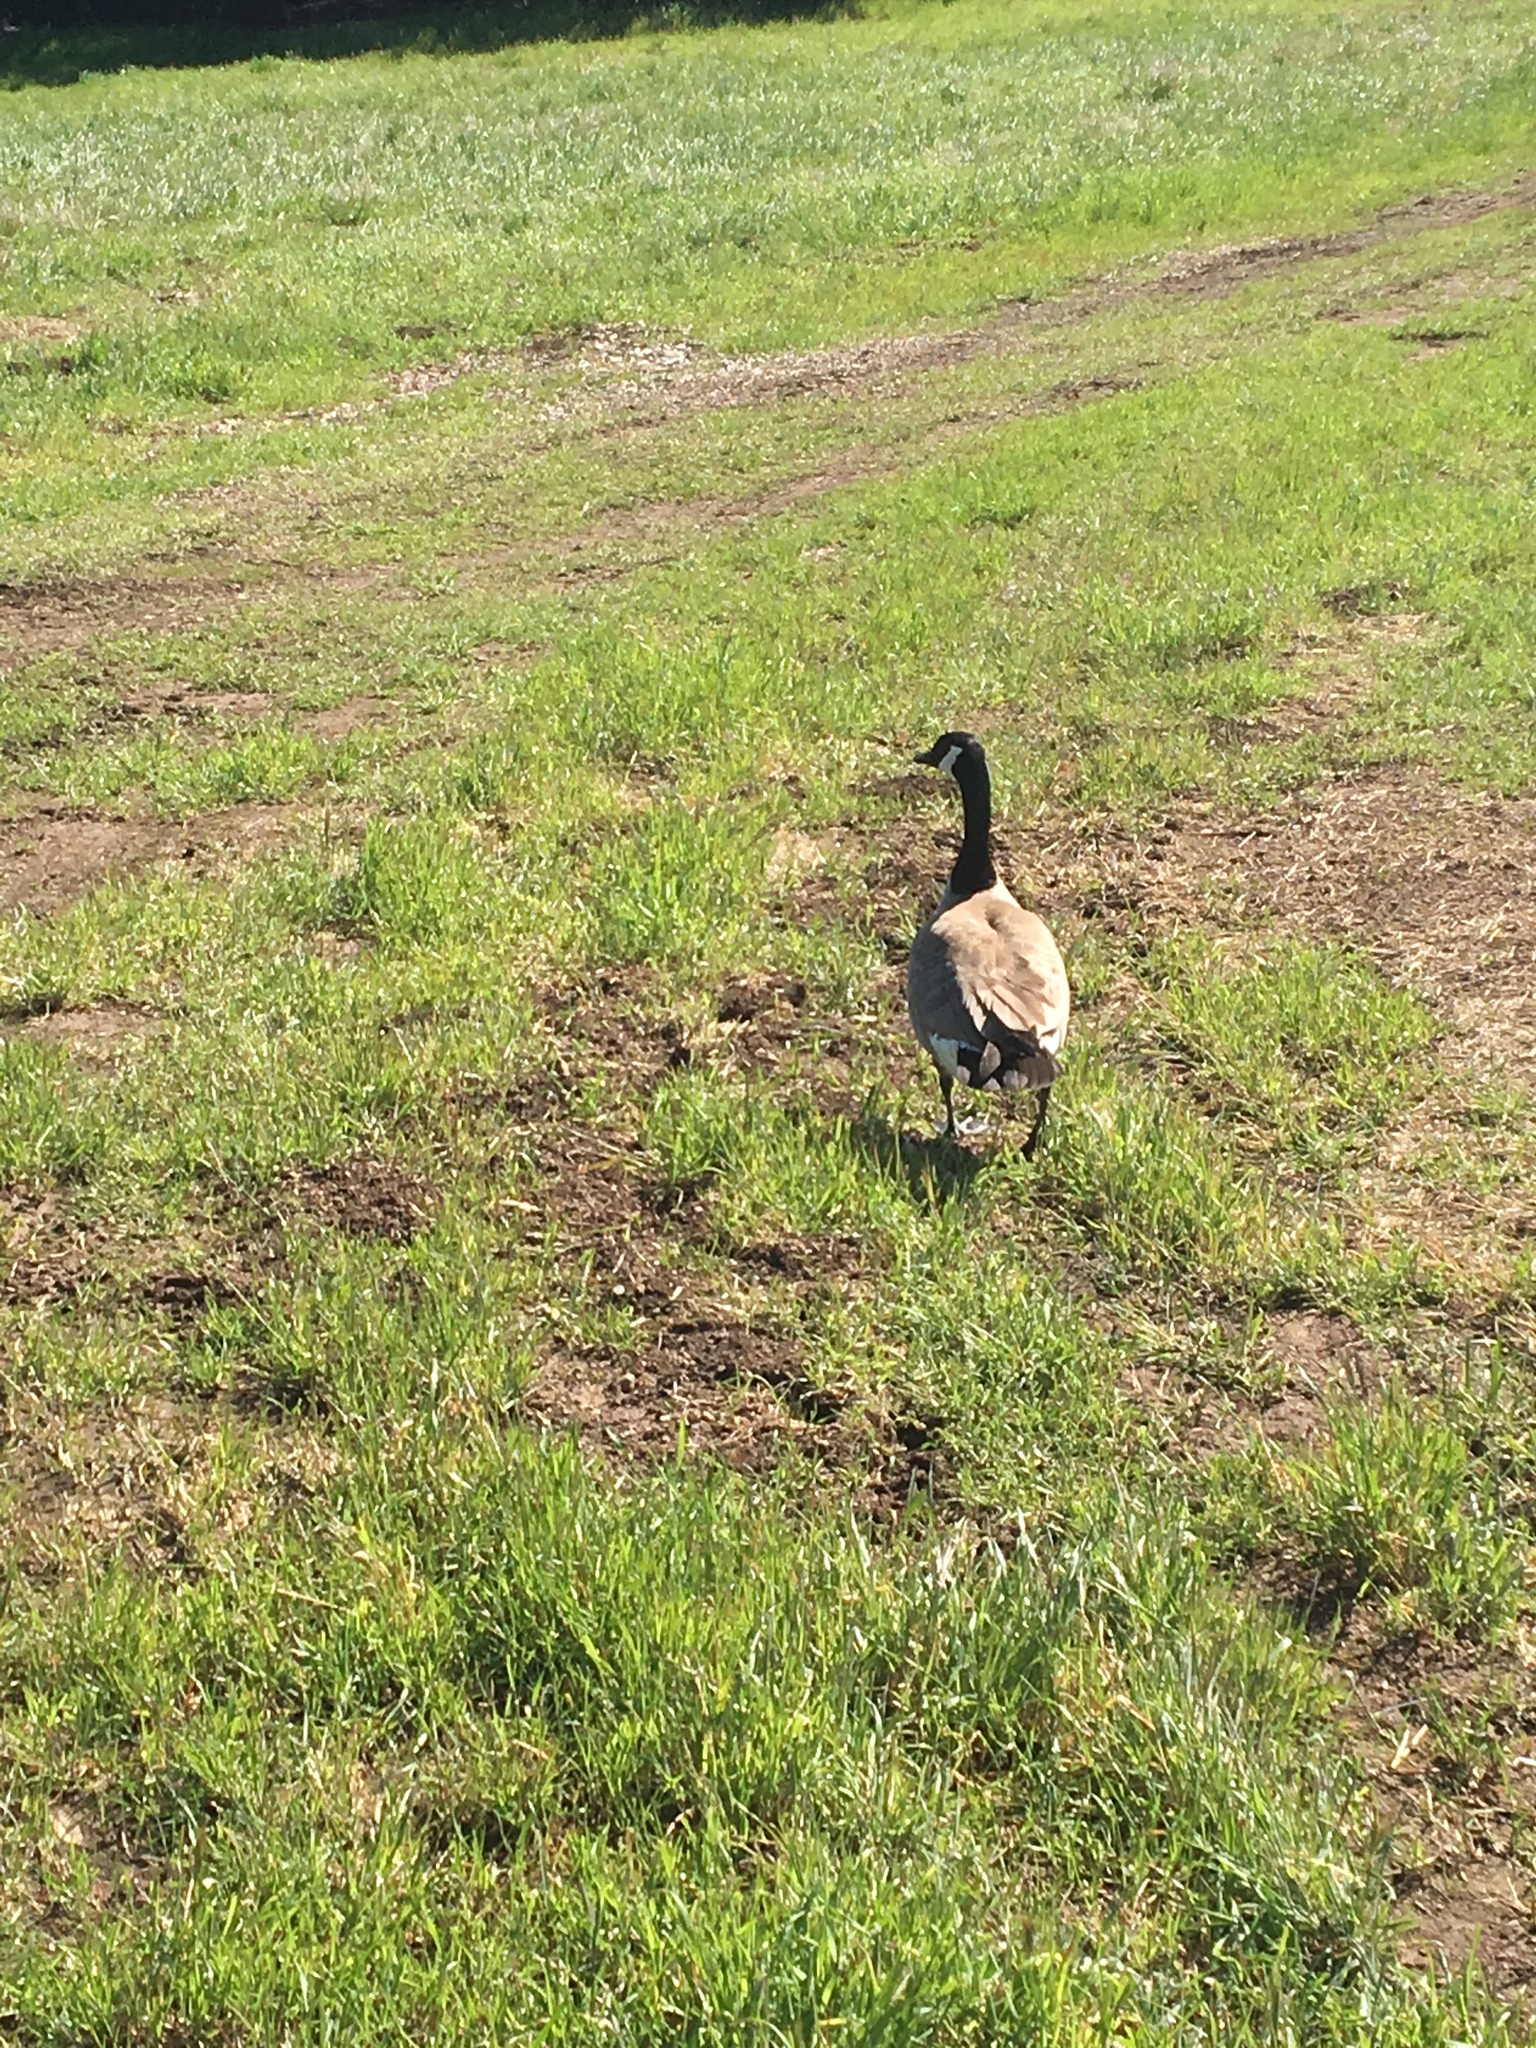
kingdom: Animalia
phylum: Chordata
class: Aves
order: Anseriformes
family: Anatidae
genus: Branta
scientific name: Branta canadensis
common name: Canada goose
